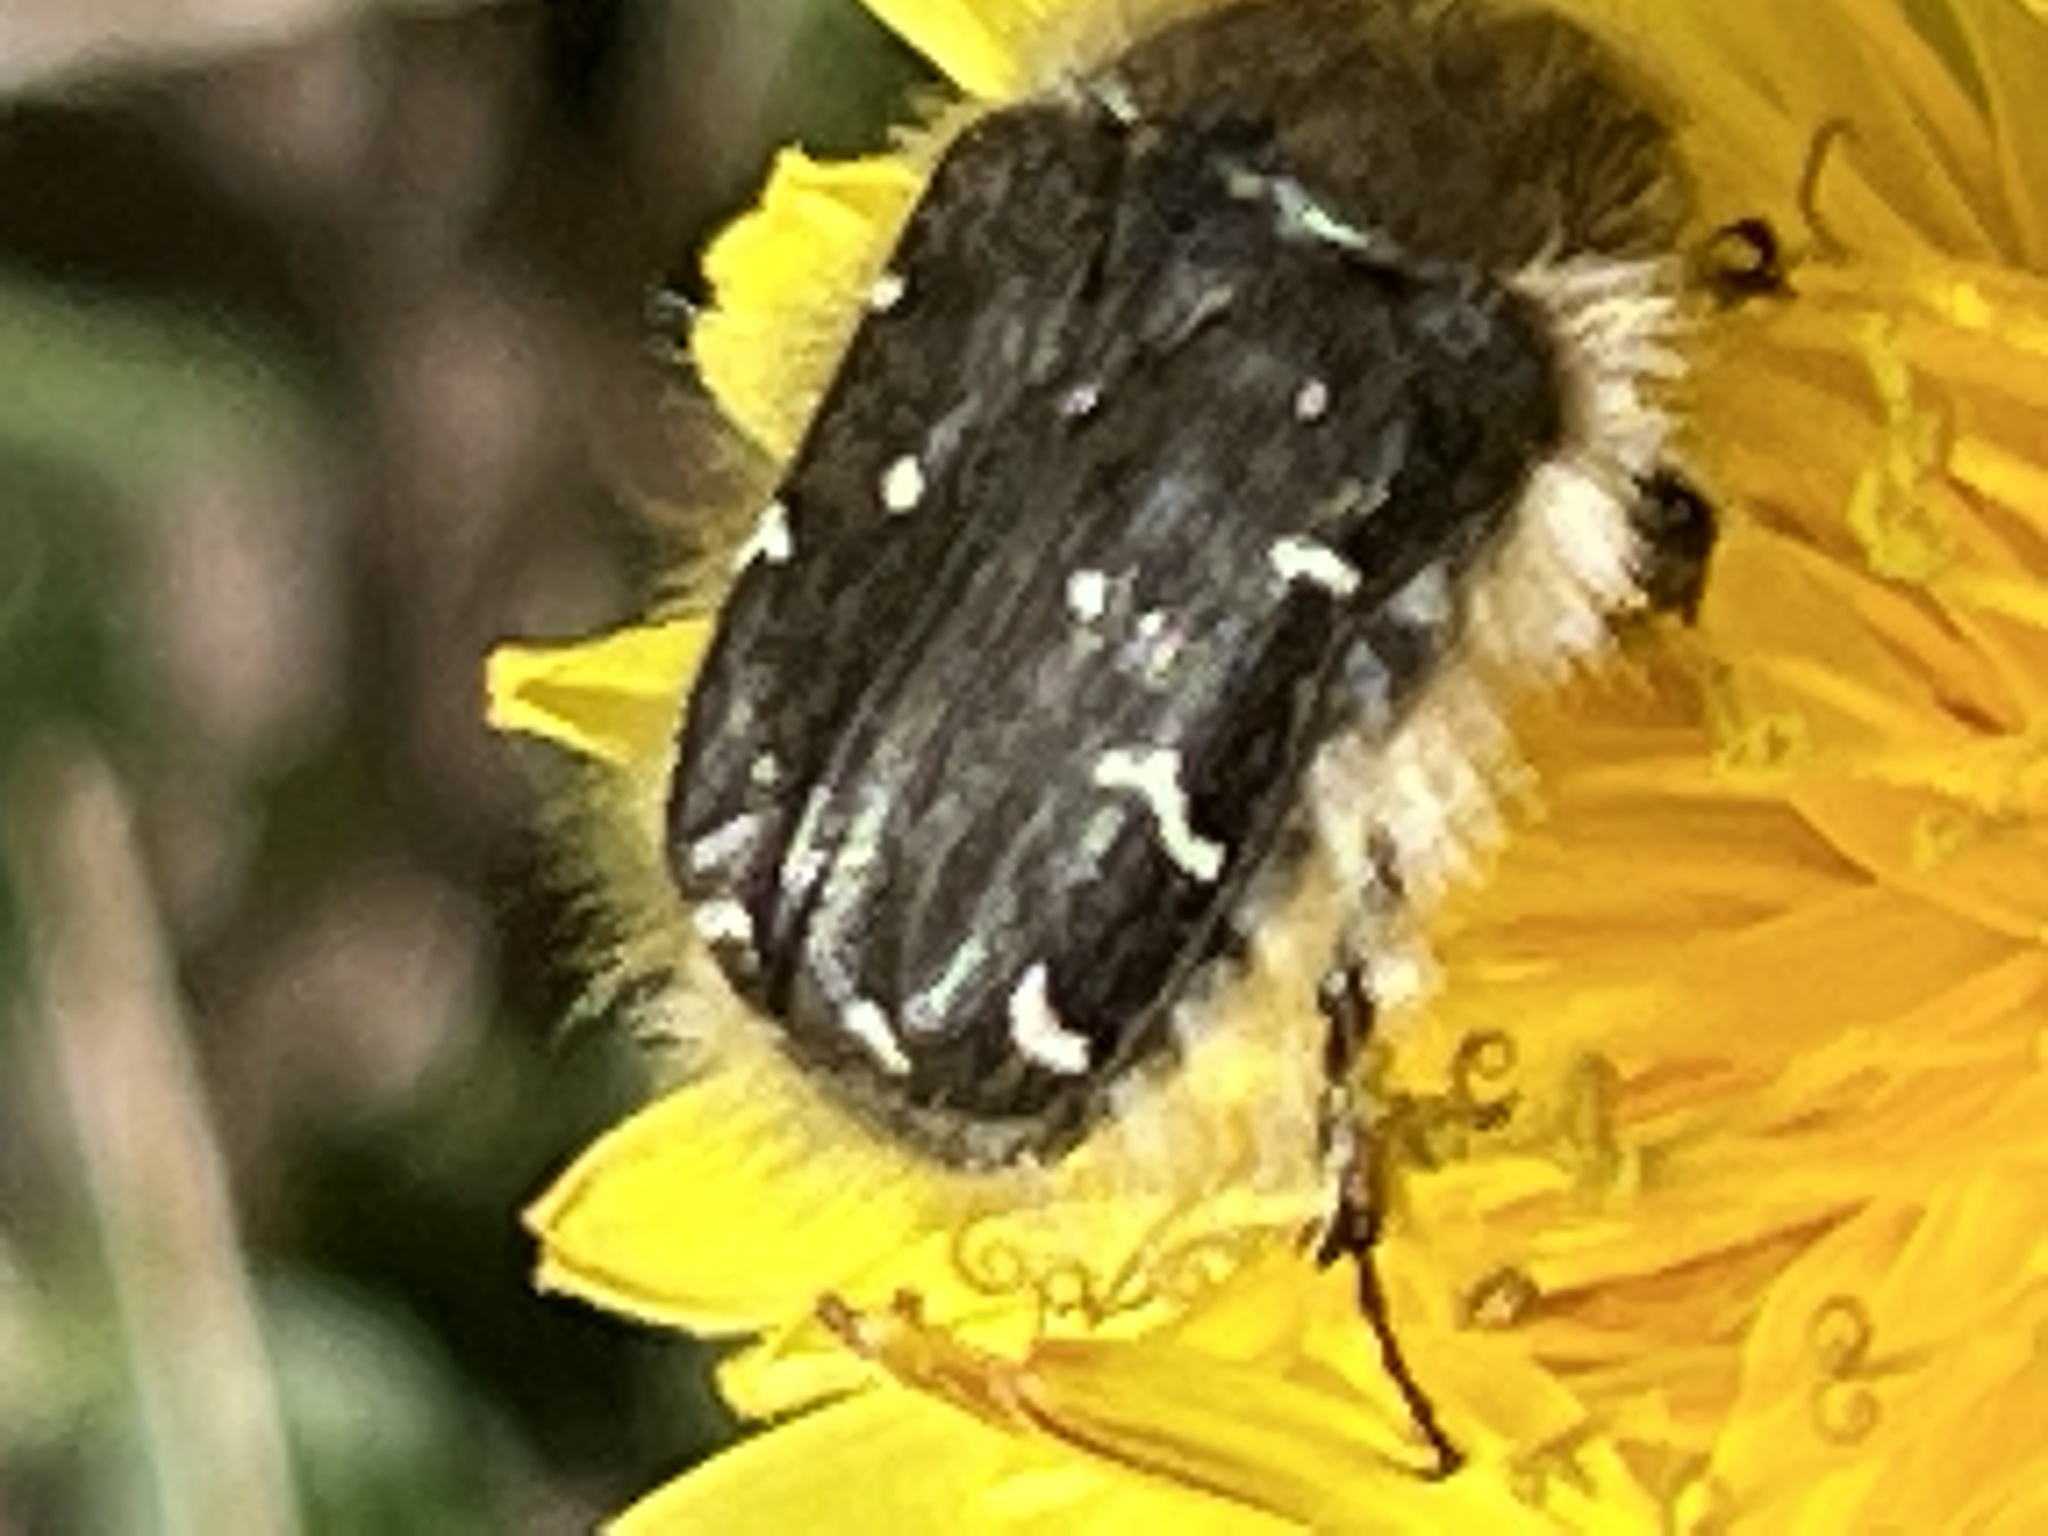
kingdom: Animalia
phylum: Arthropoda
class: Insecta
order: Coleoptera
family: Scarabaeidae
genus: Tropinota
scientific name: Tropinota hirta
